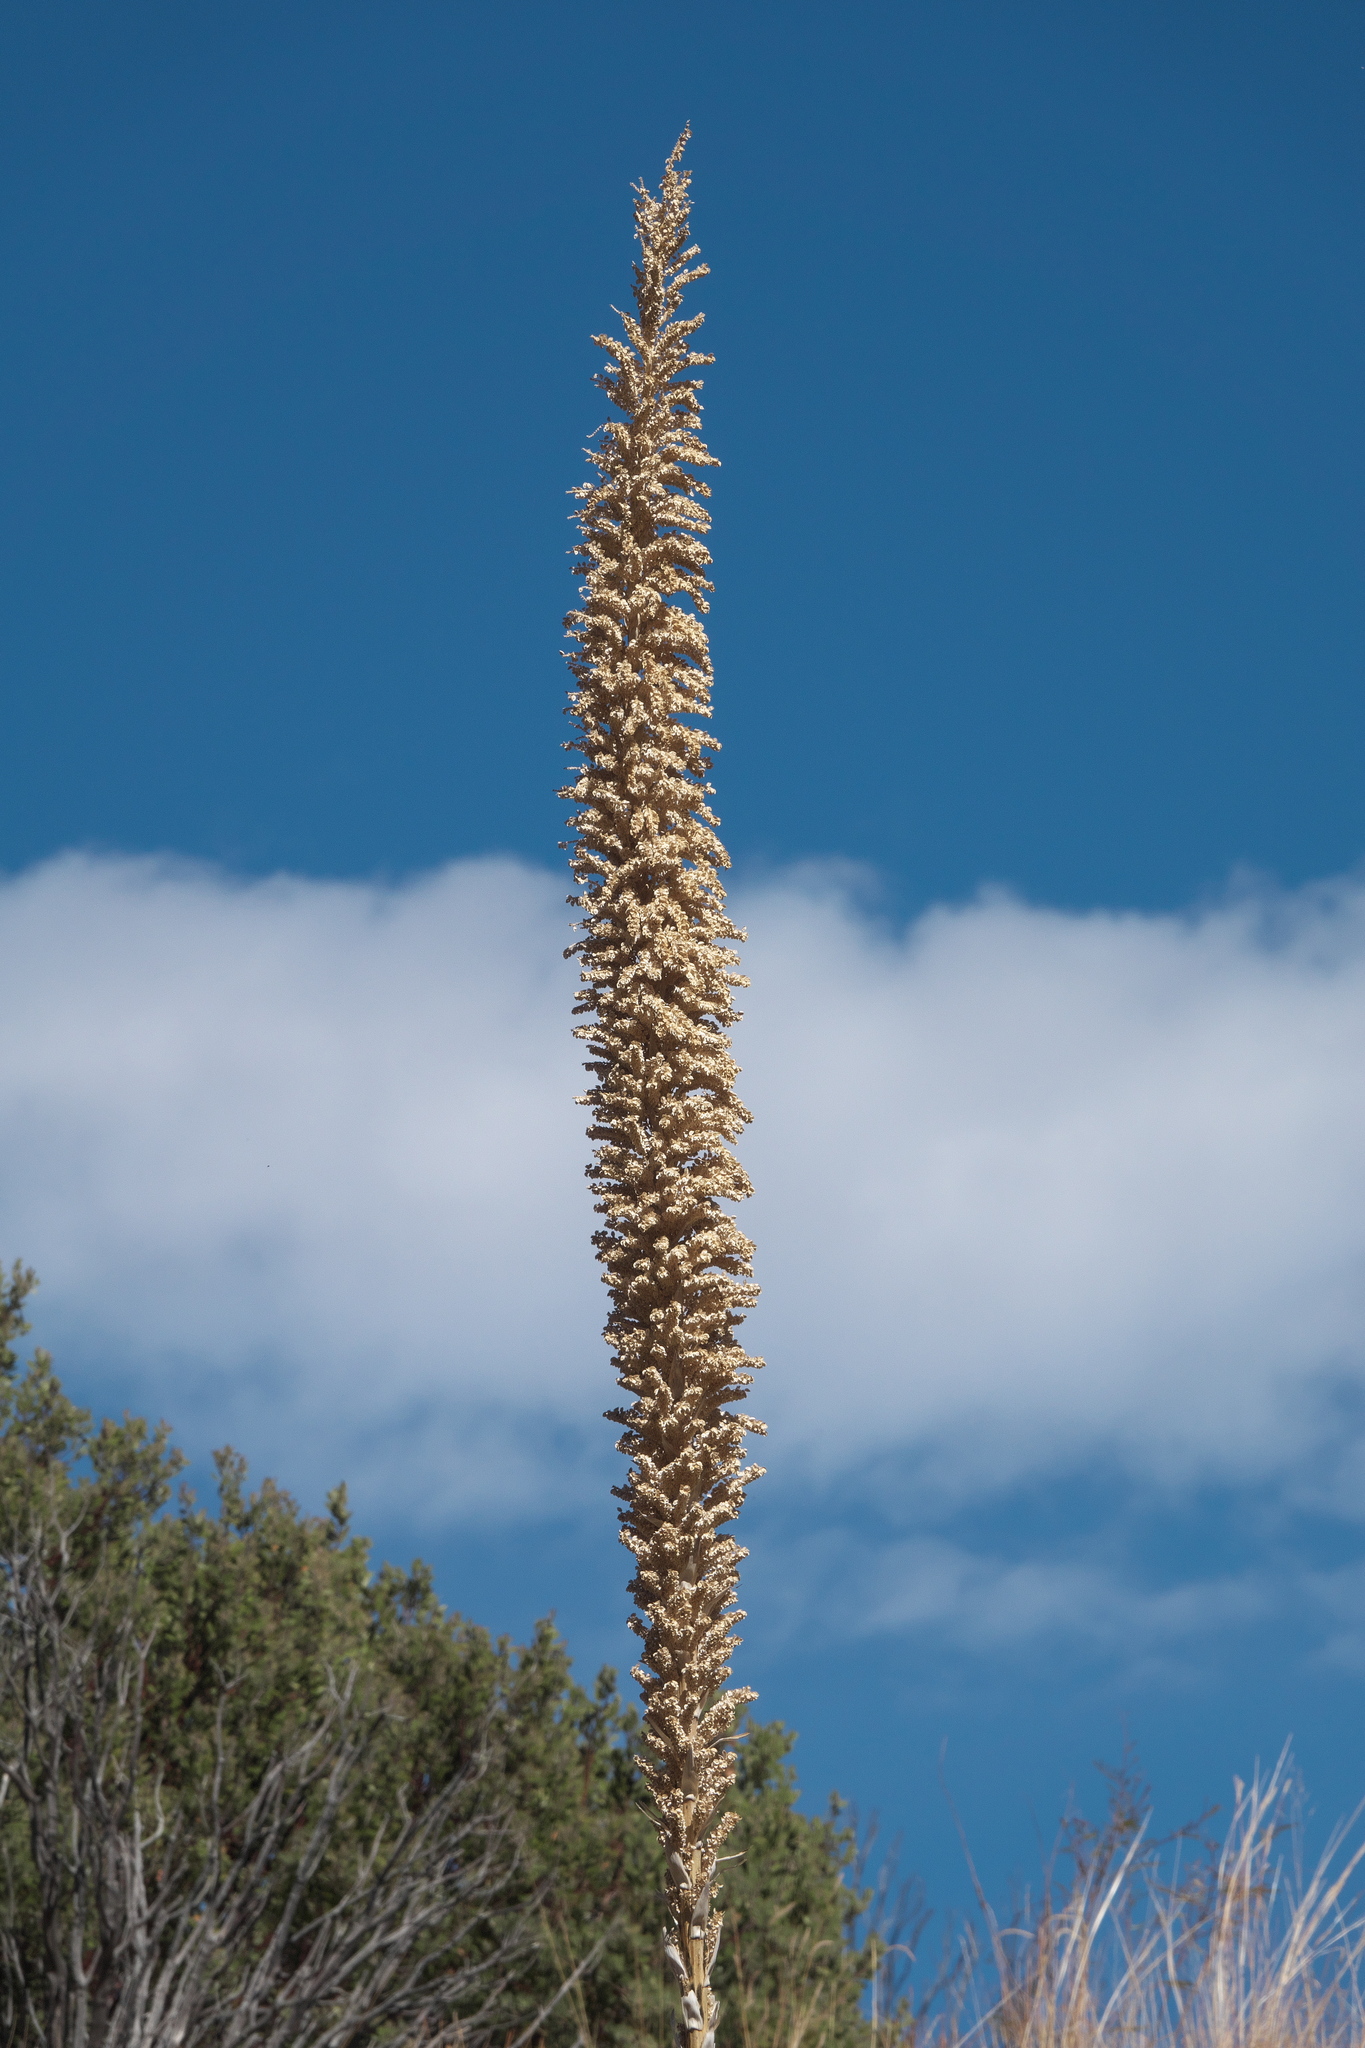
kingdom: Plantae
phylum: Tracheophyta
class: Liliopsida
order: Asparagales
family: Asparagaceae
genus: Dasylirion
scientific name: Dasylirion wheeleri
